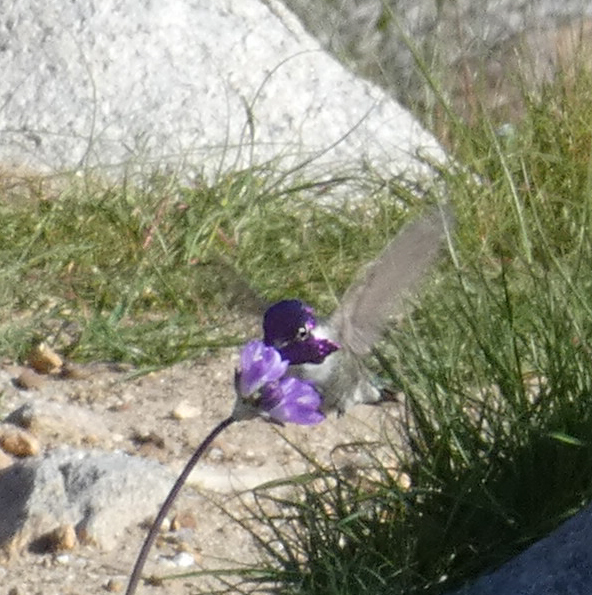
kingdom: Animalia
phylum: Chordata
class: Aves
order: Apodiformes
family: Trochilidae
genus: Calypte
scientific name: Calypte costae
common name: Costa's hummingbird
